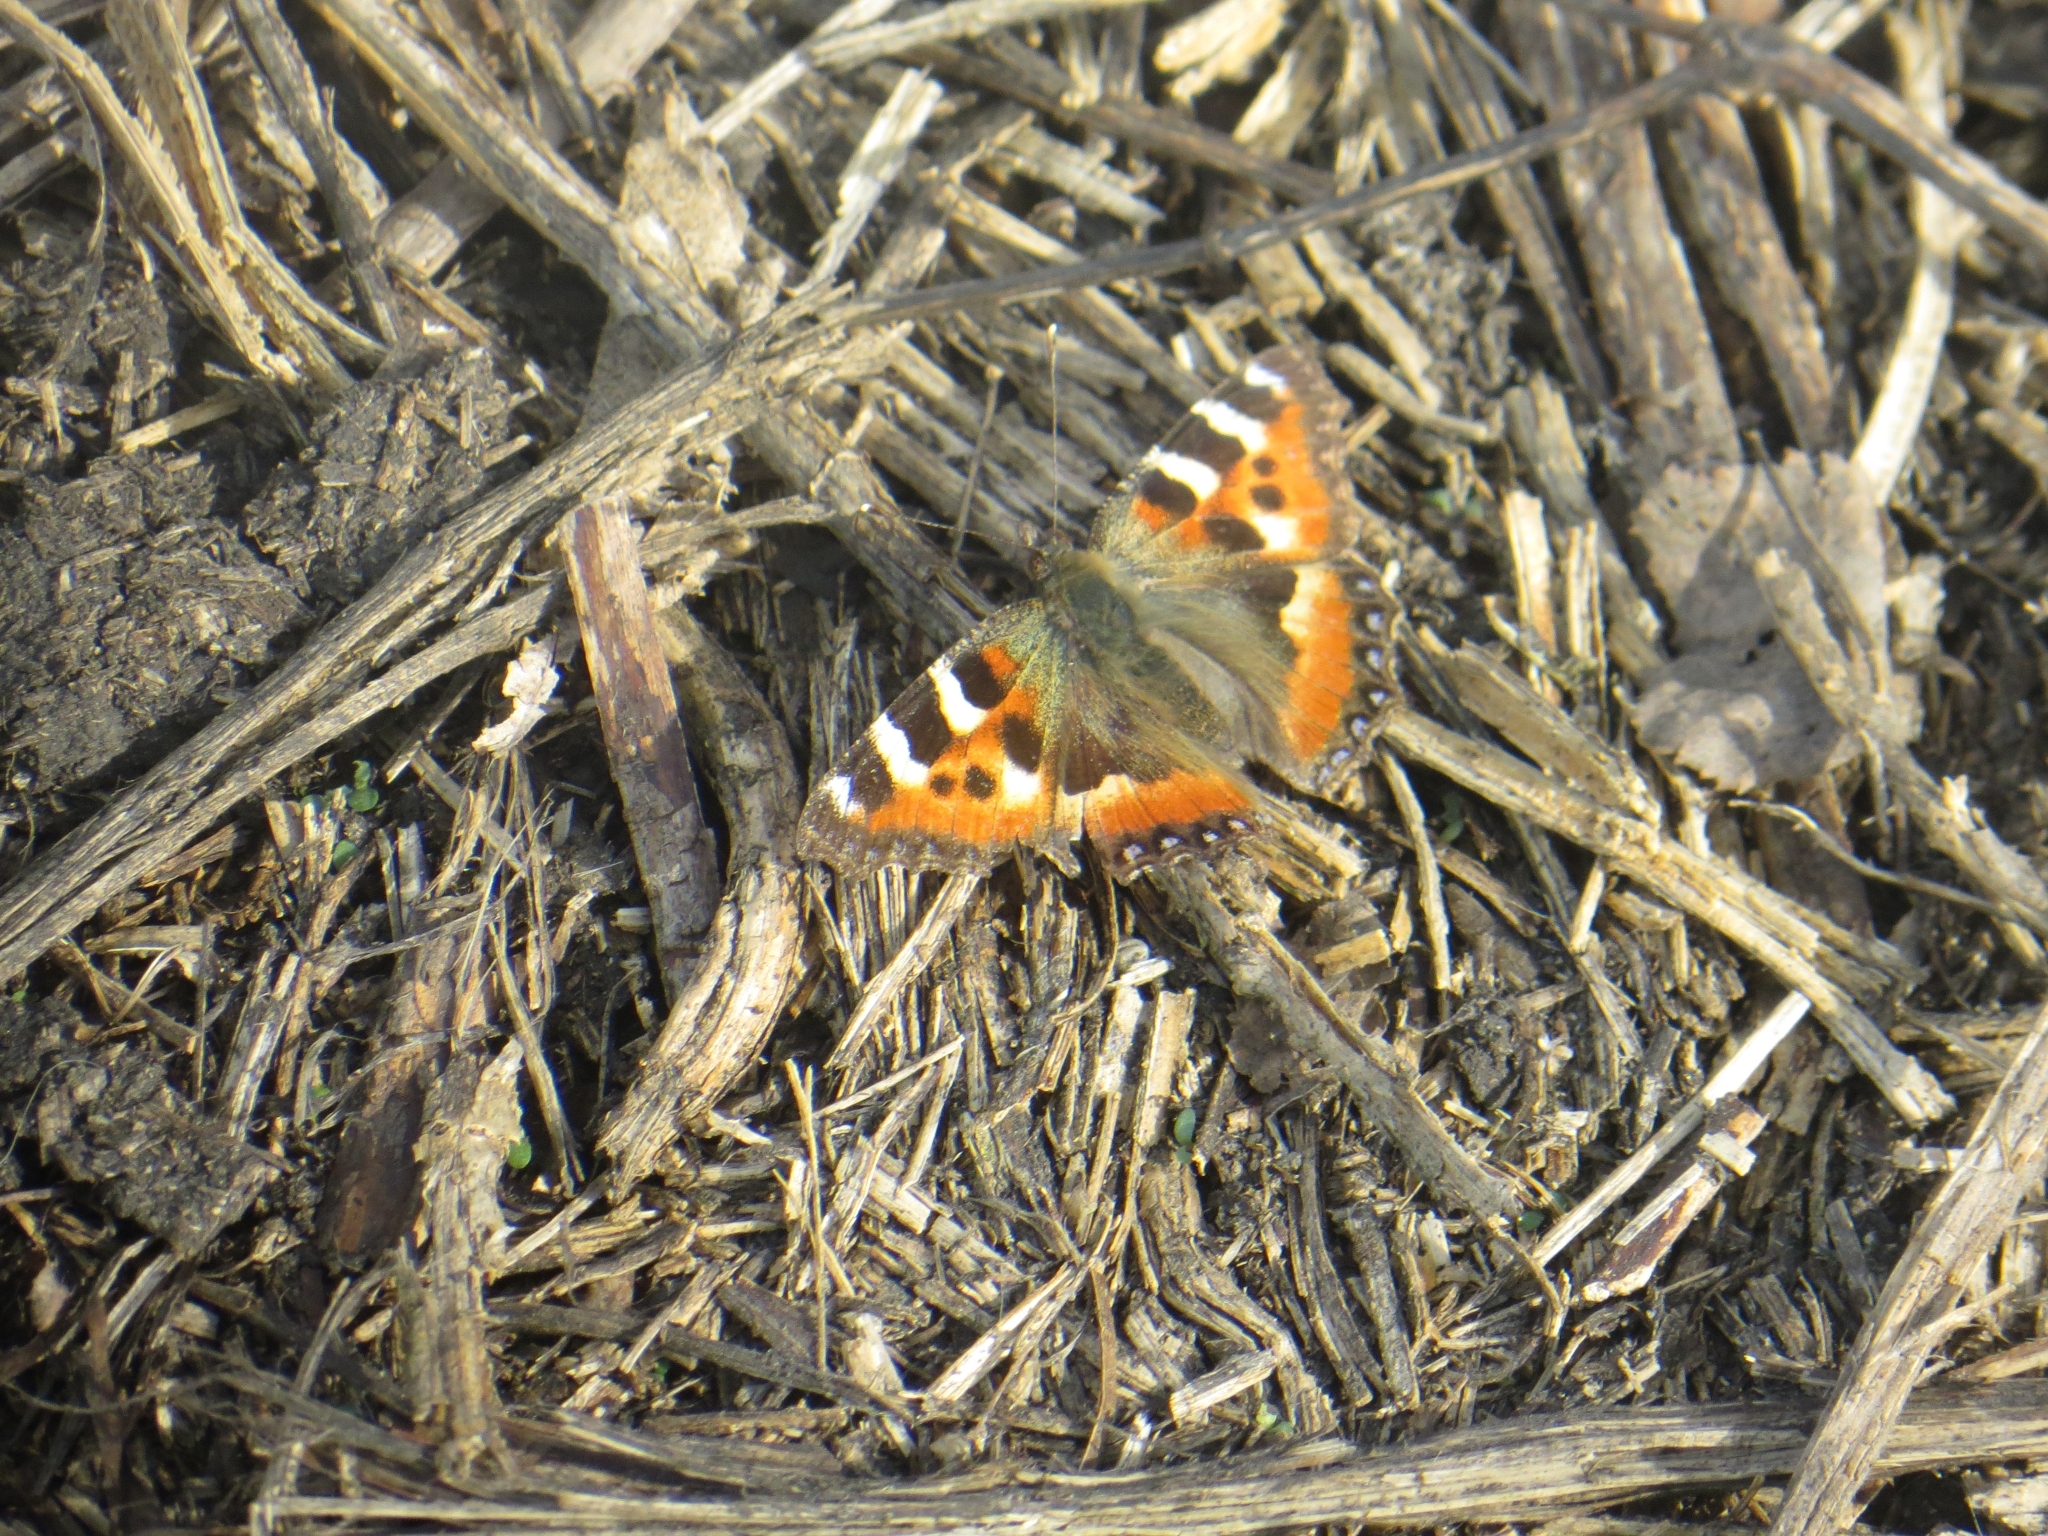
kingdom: Animalia
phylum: Arthropoda
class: Insecta
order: Lepidoptera
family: Nymphalidae
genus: Aglais
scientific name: Aglais urticae
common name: Small tortoiseshell
